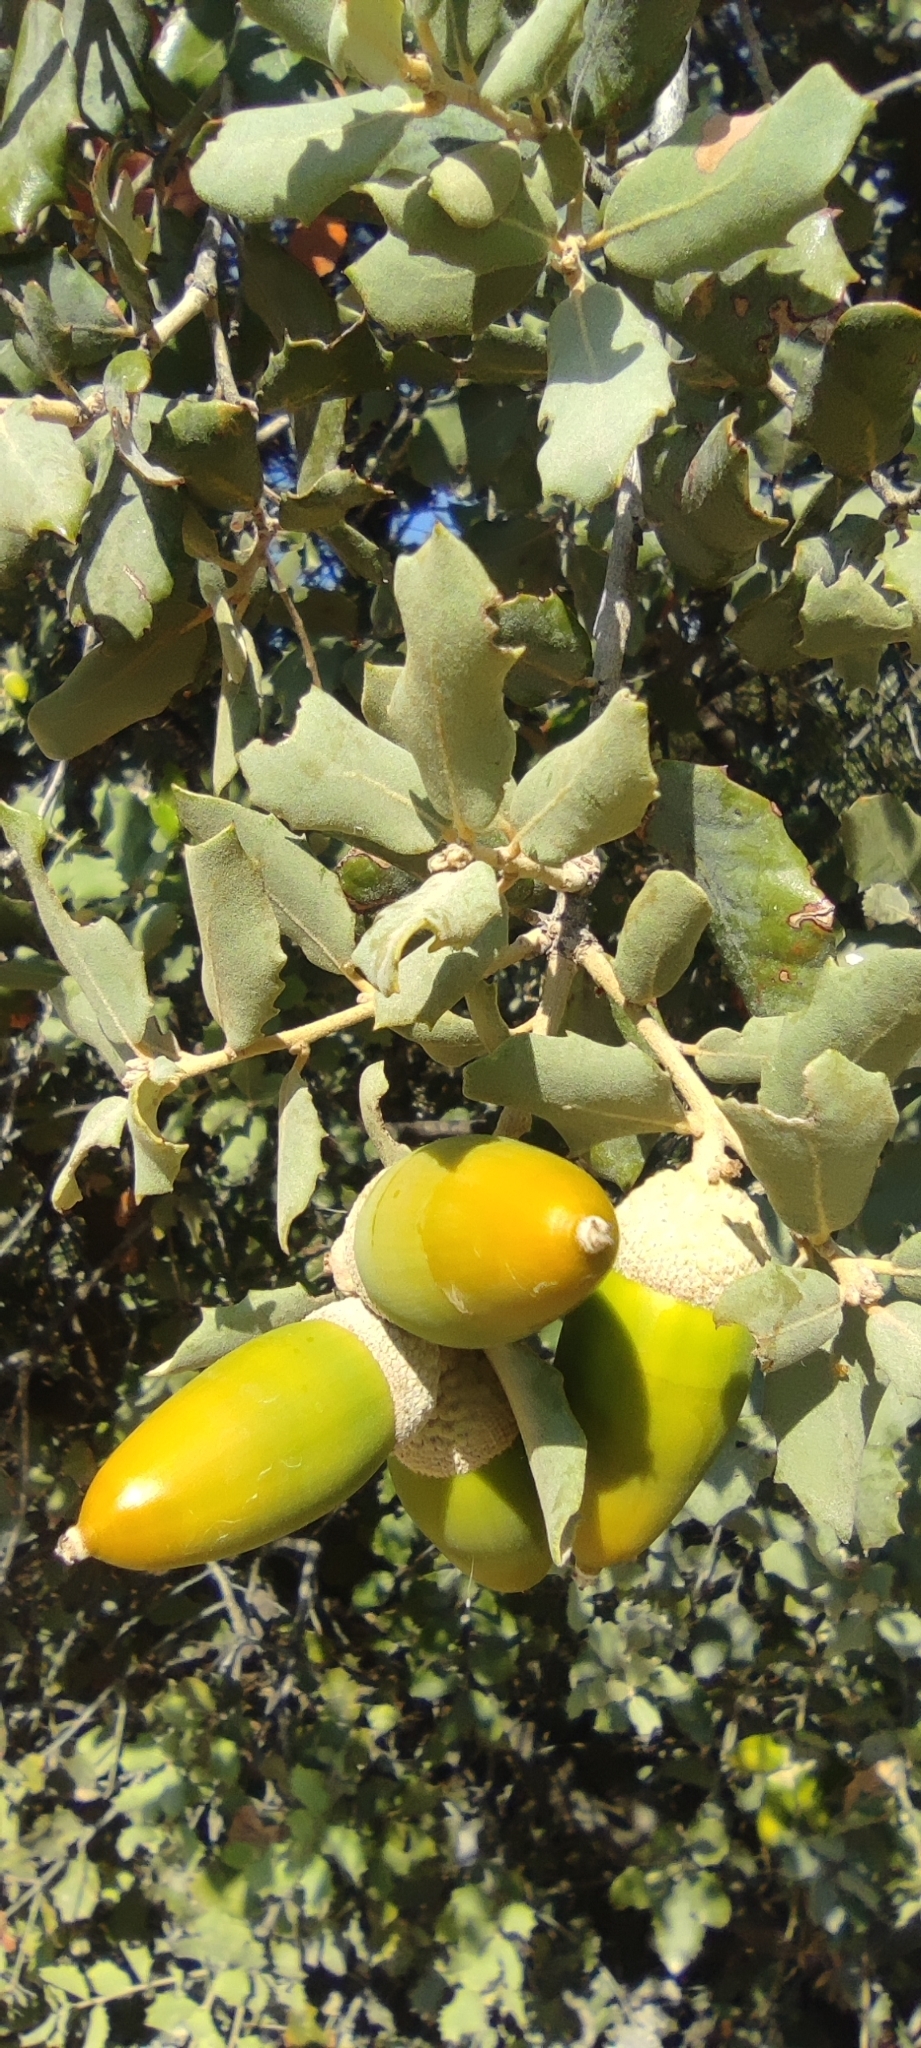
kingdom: Plantae
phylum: Tracheophyta
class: Magnoliopsida
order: Fagales
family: Fagaceae
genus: Quercus
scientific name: Quercus rotundifolia
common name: Holm oak
